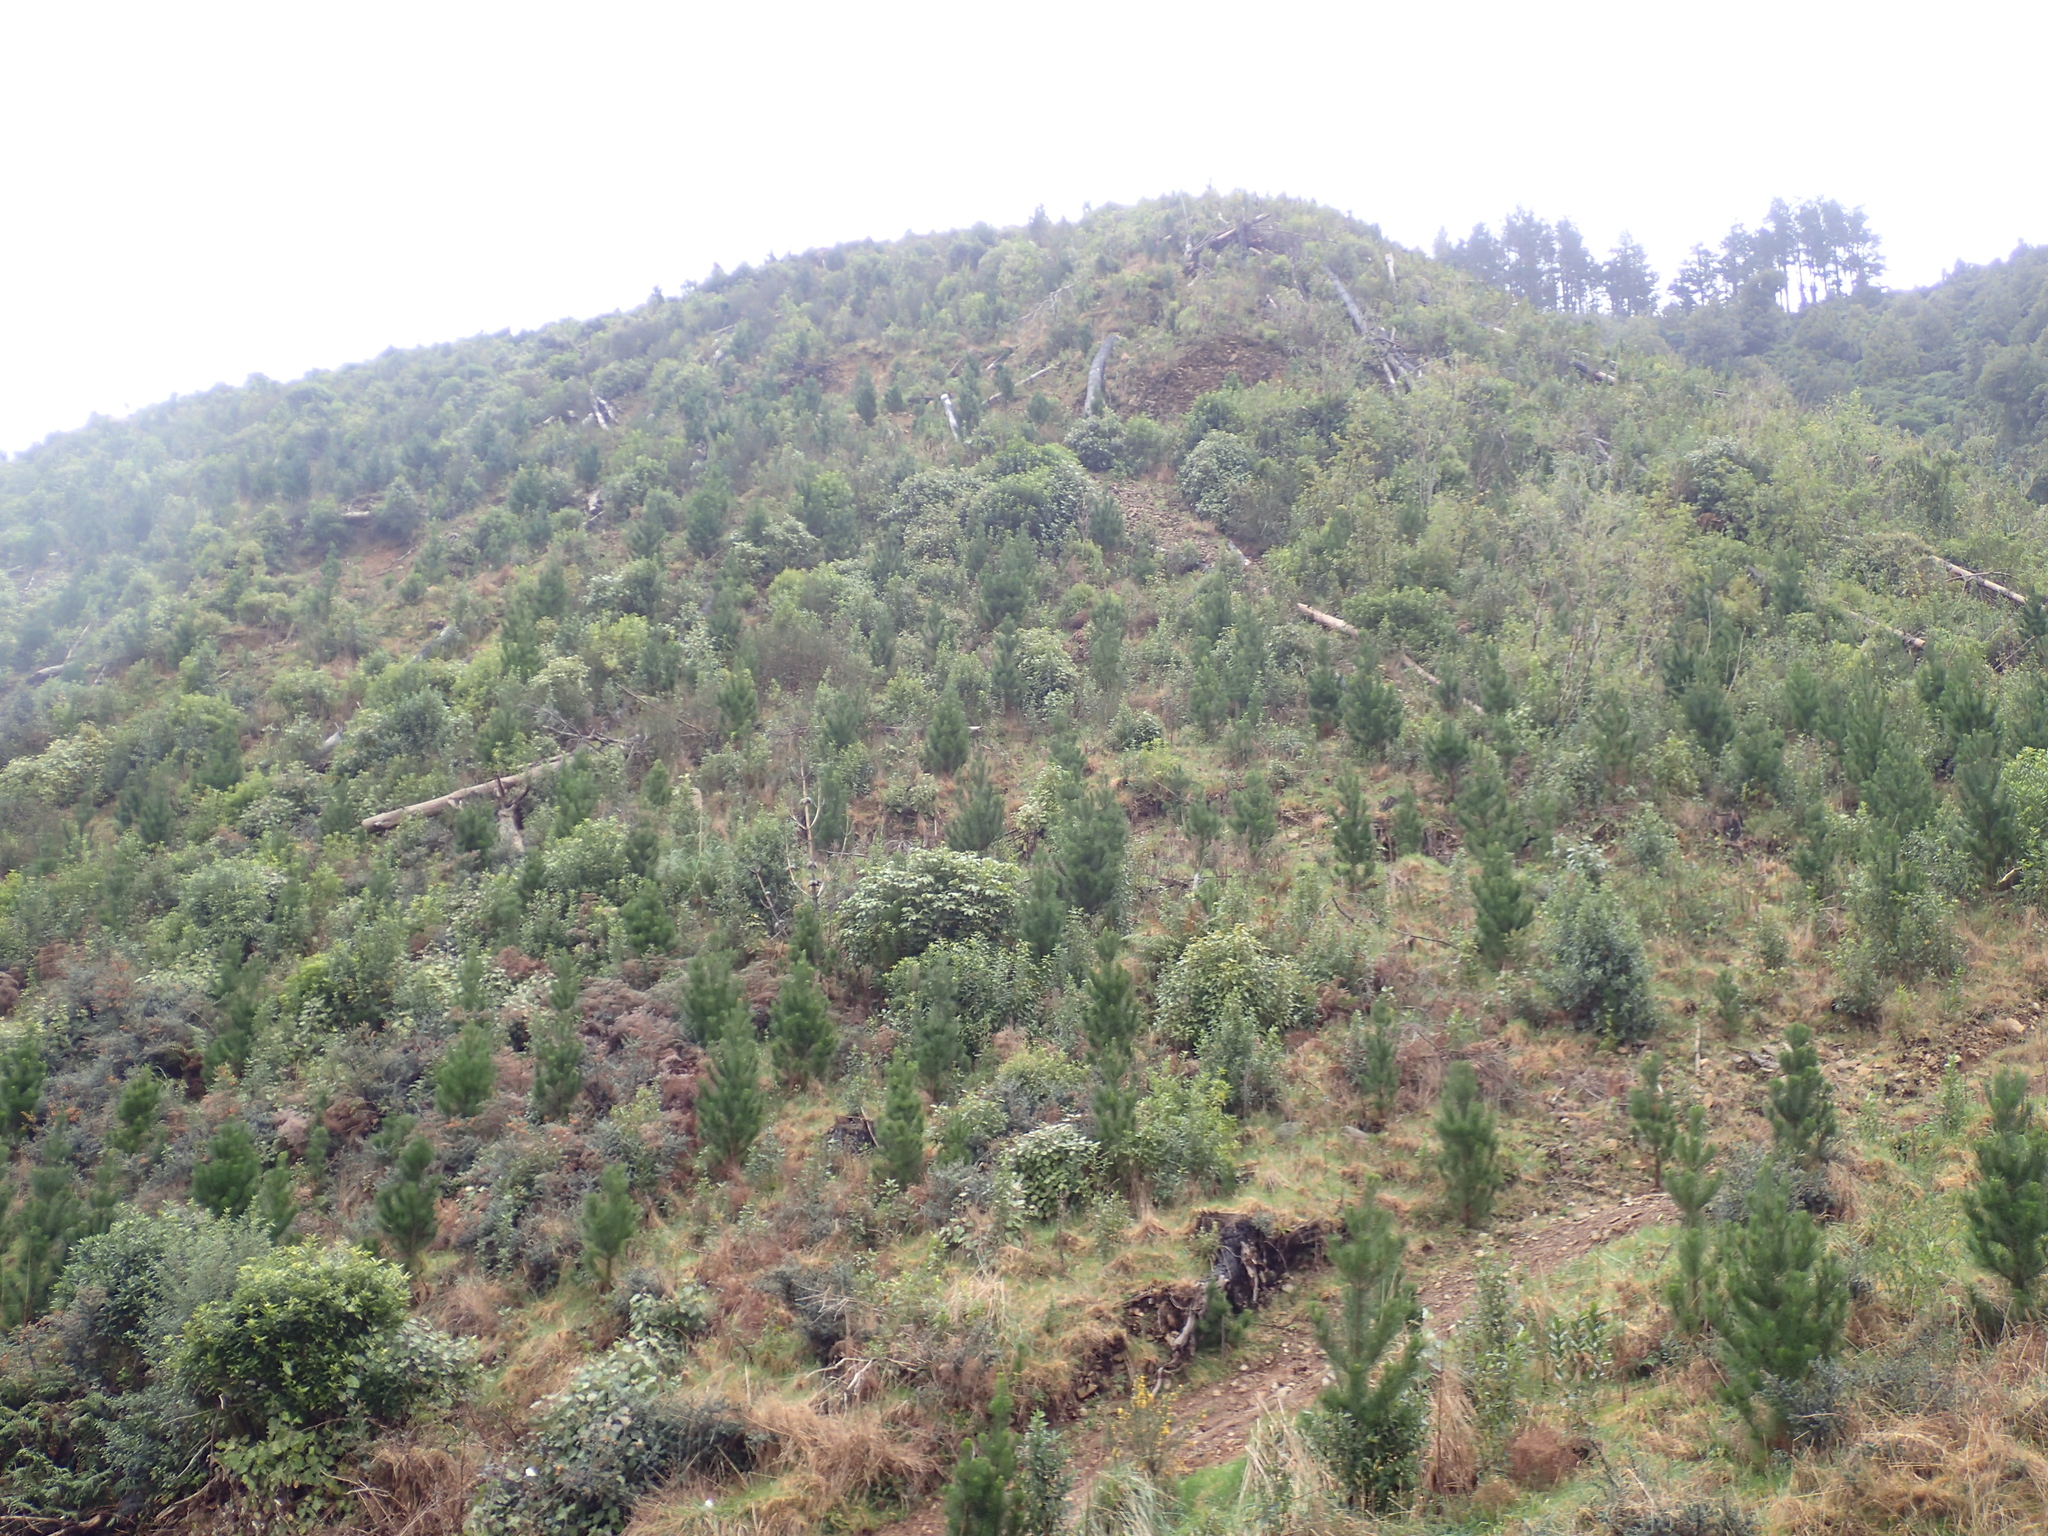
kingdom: Plantae
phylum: Tracheophyta
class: Pinopsida
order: Pinales
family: Pinaceae
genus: Pinus
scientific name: Pinus radiata
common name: Monterey pine
